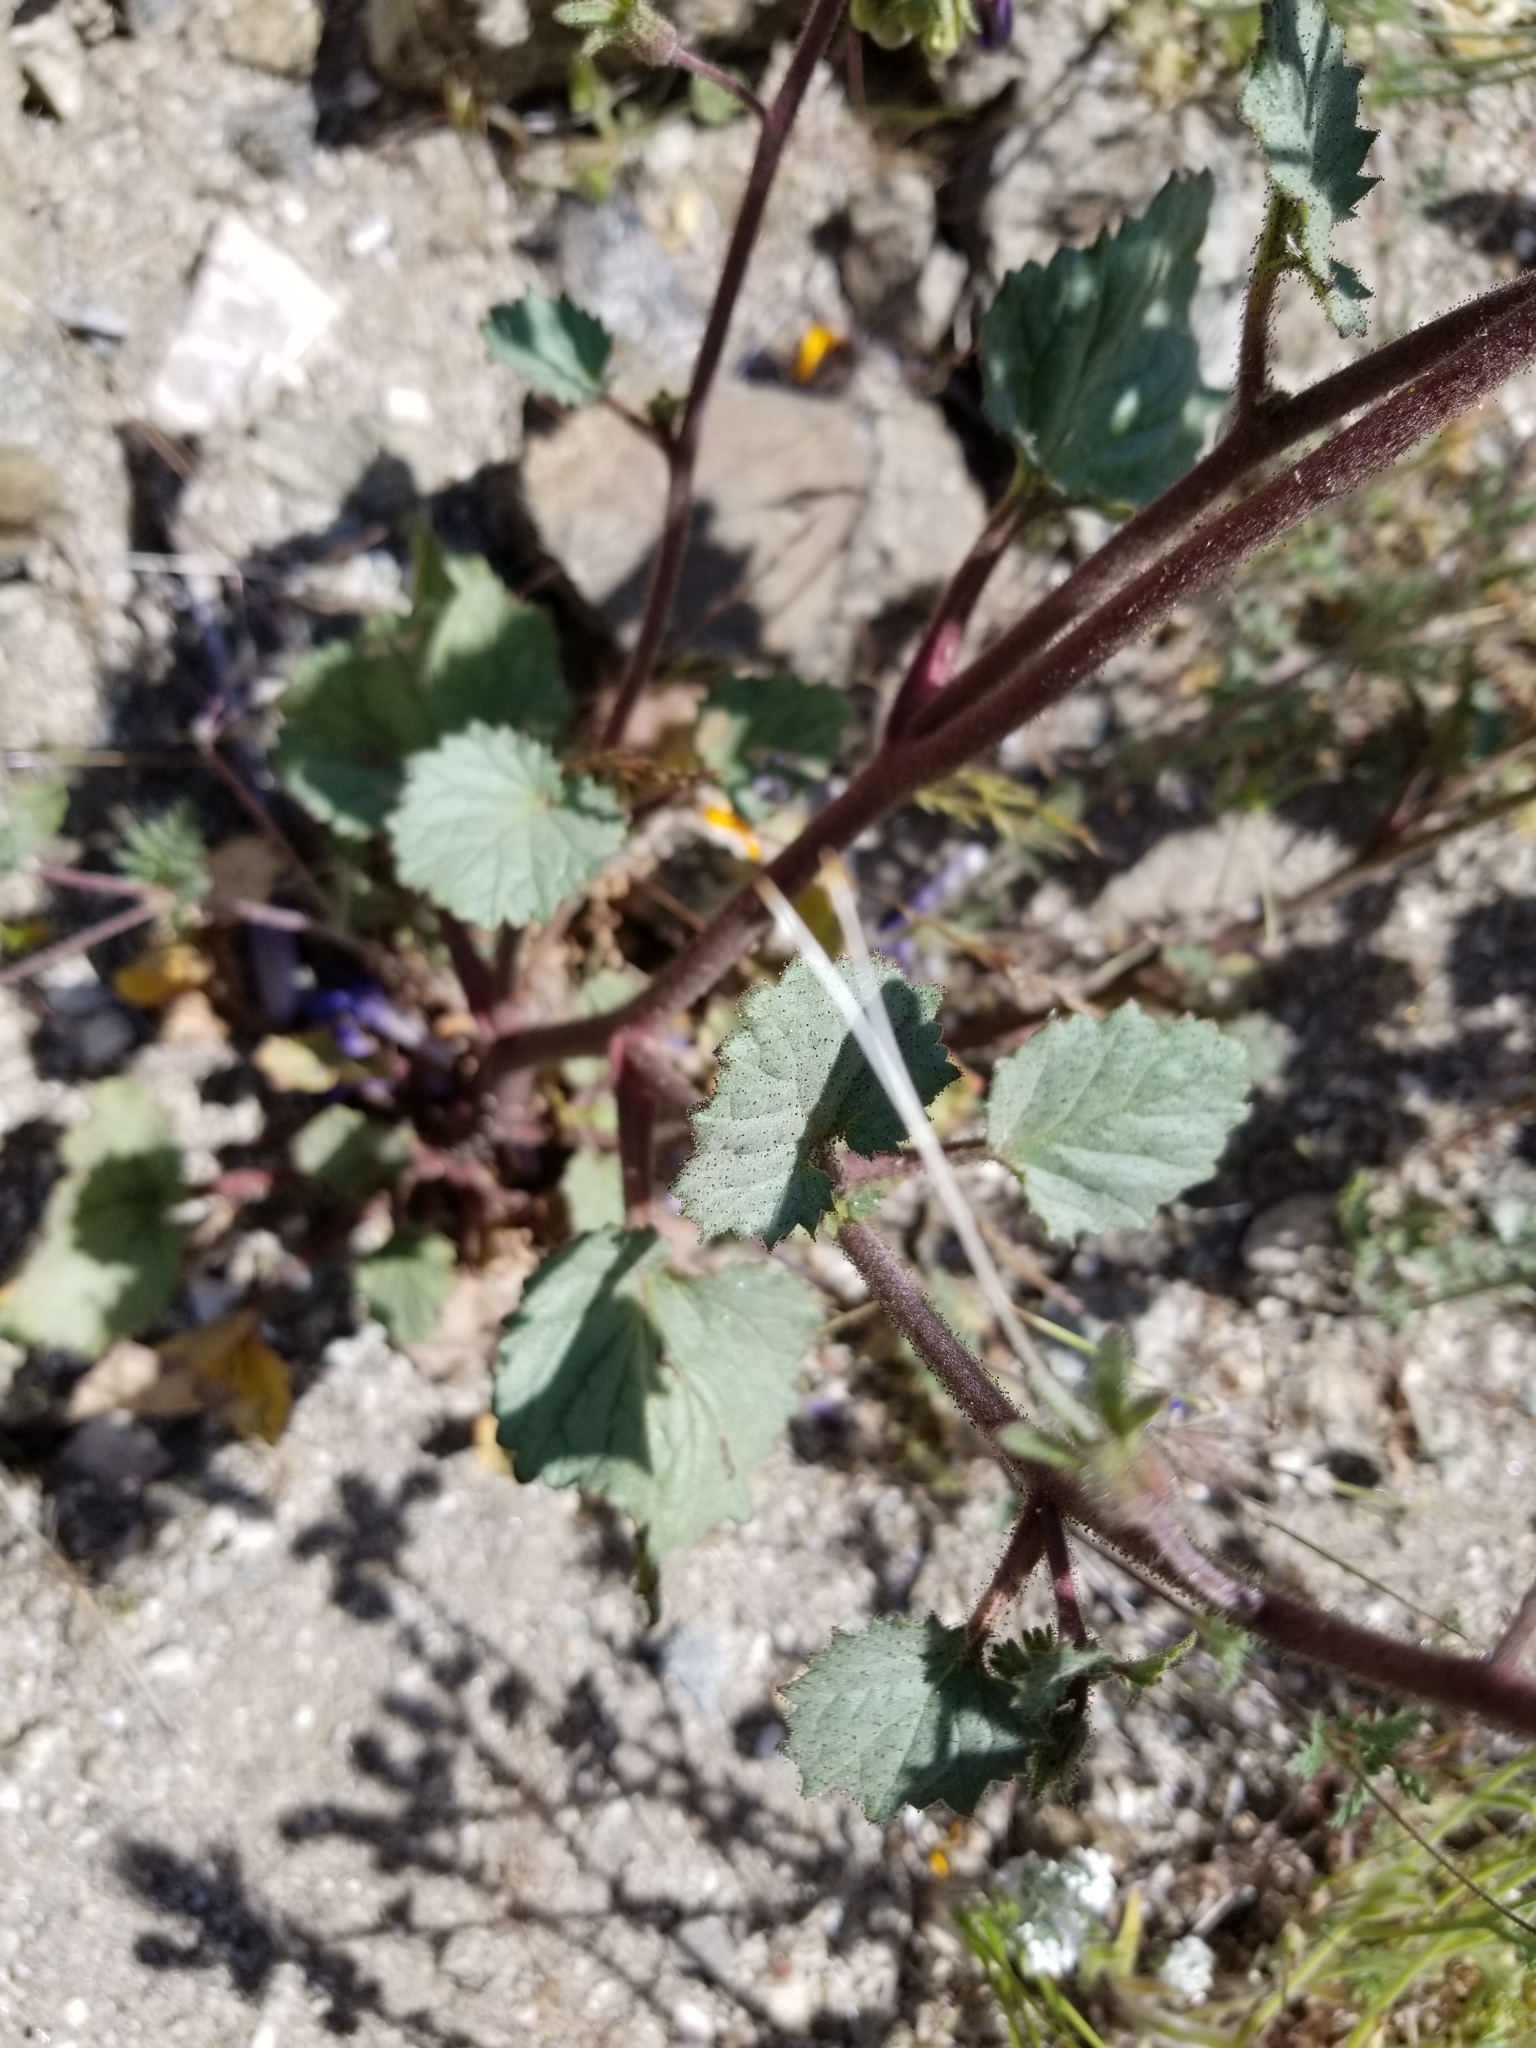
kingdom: Plantae
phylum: Tracheophyta
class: Magnoliopsida
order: Boraginales
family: Hydrophyllaceae
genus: Phacelia
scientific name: Phacelia campanularia
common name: California bluebell
